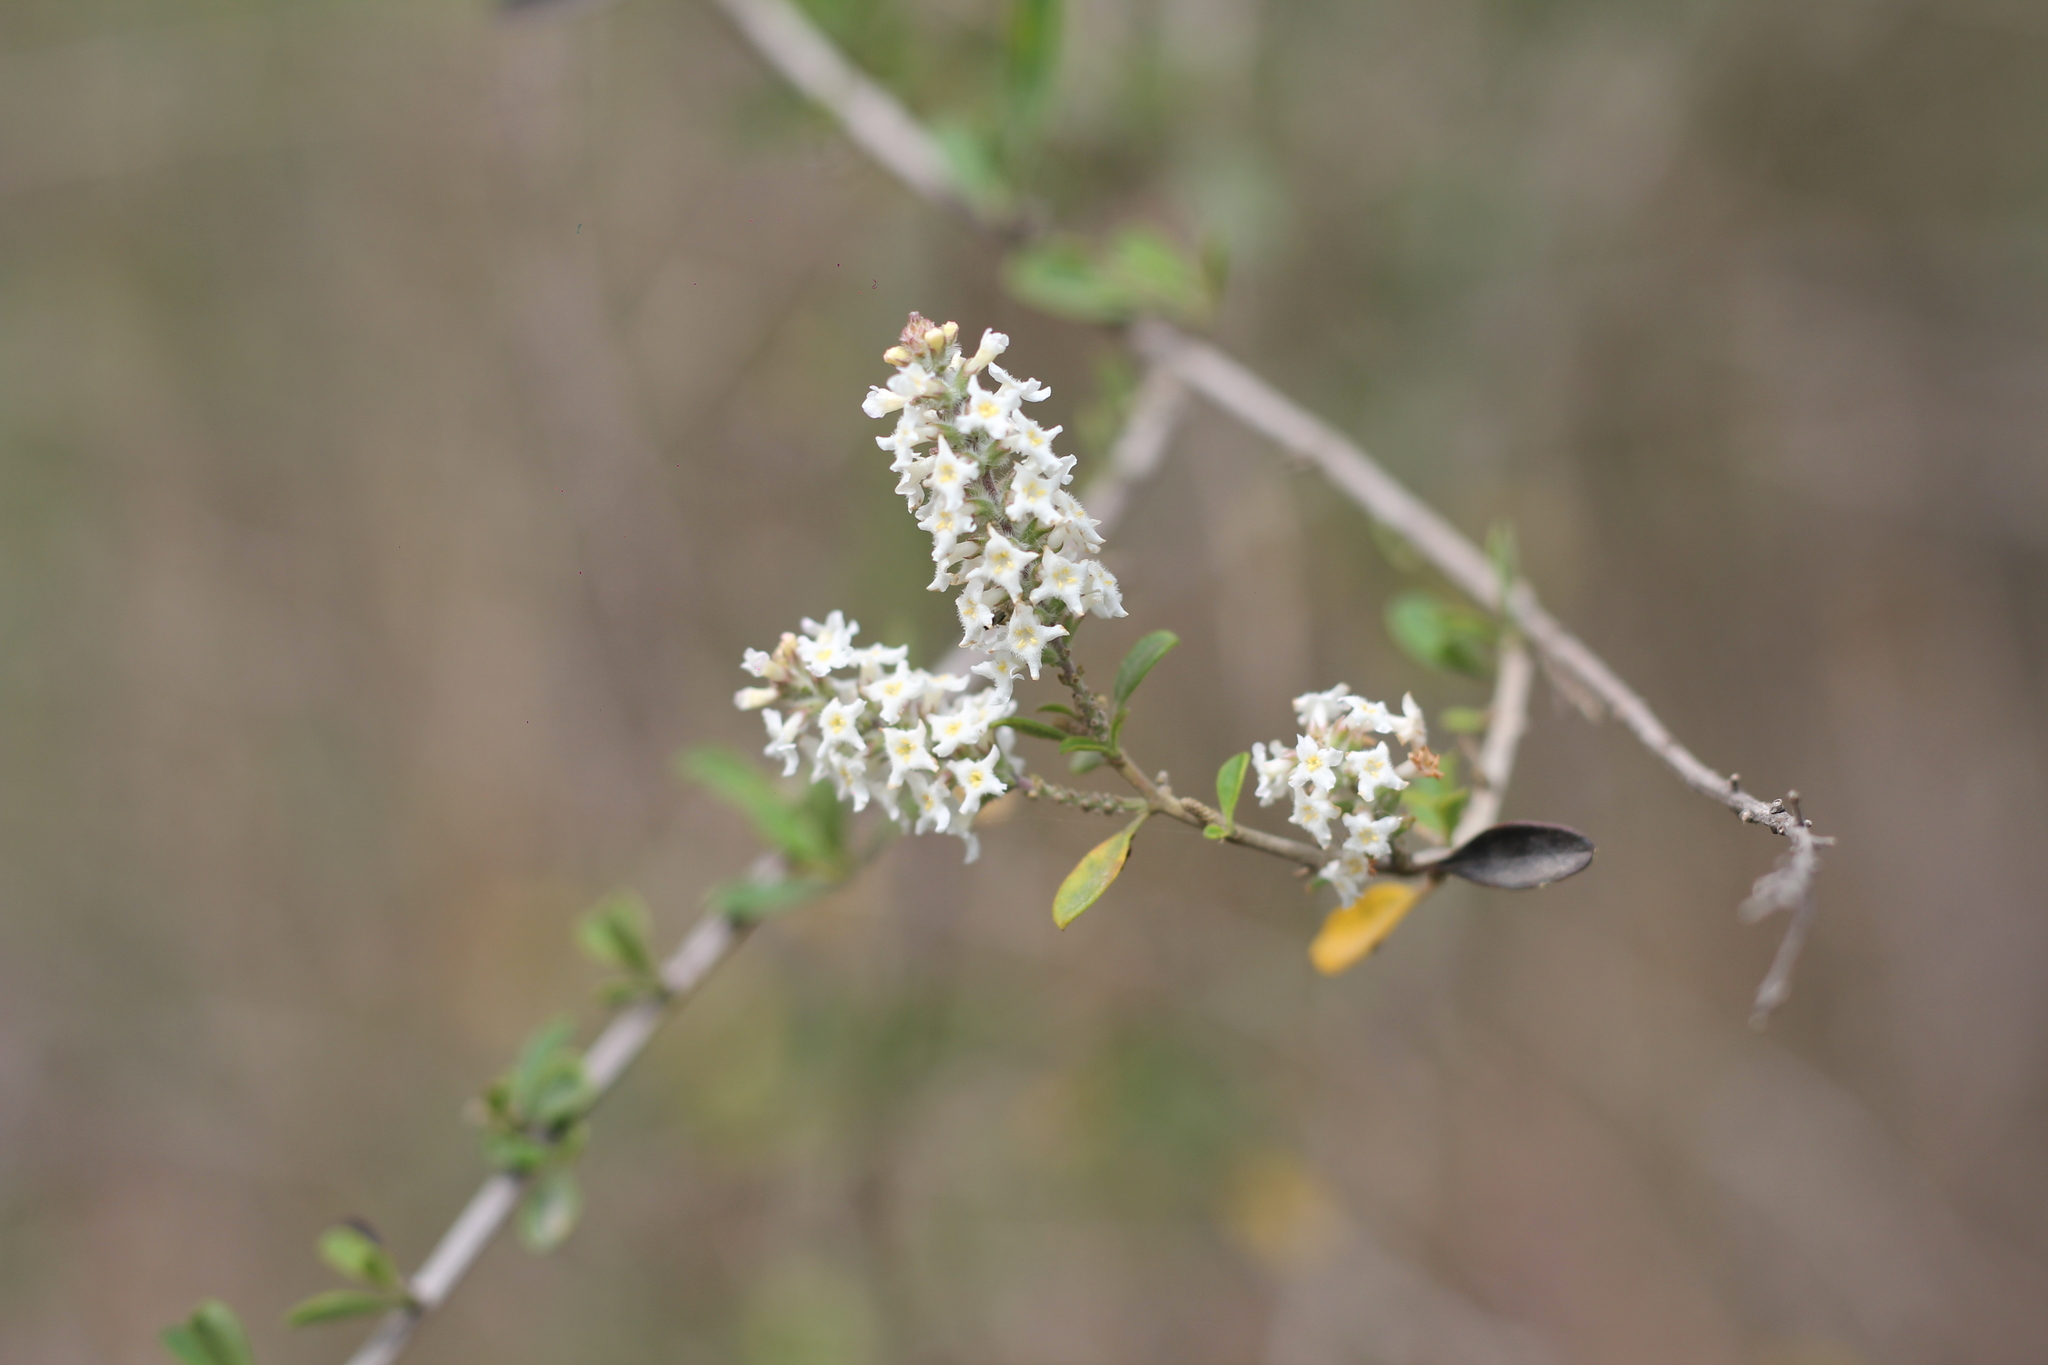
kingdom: Plantae
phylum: Tracheophyta
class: Magnoliopsida
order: Lamiales
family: Verbenaceae
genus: Aloysia
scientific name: Aloysia gratissima
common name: Common bee-brush
